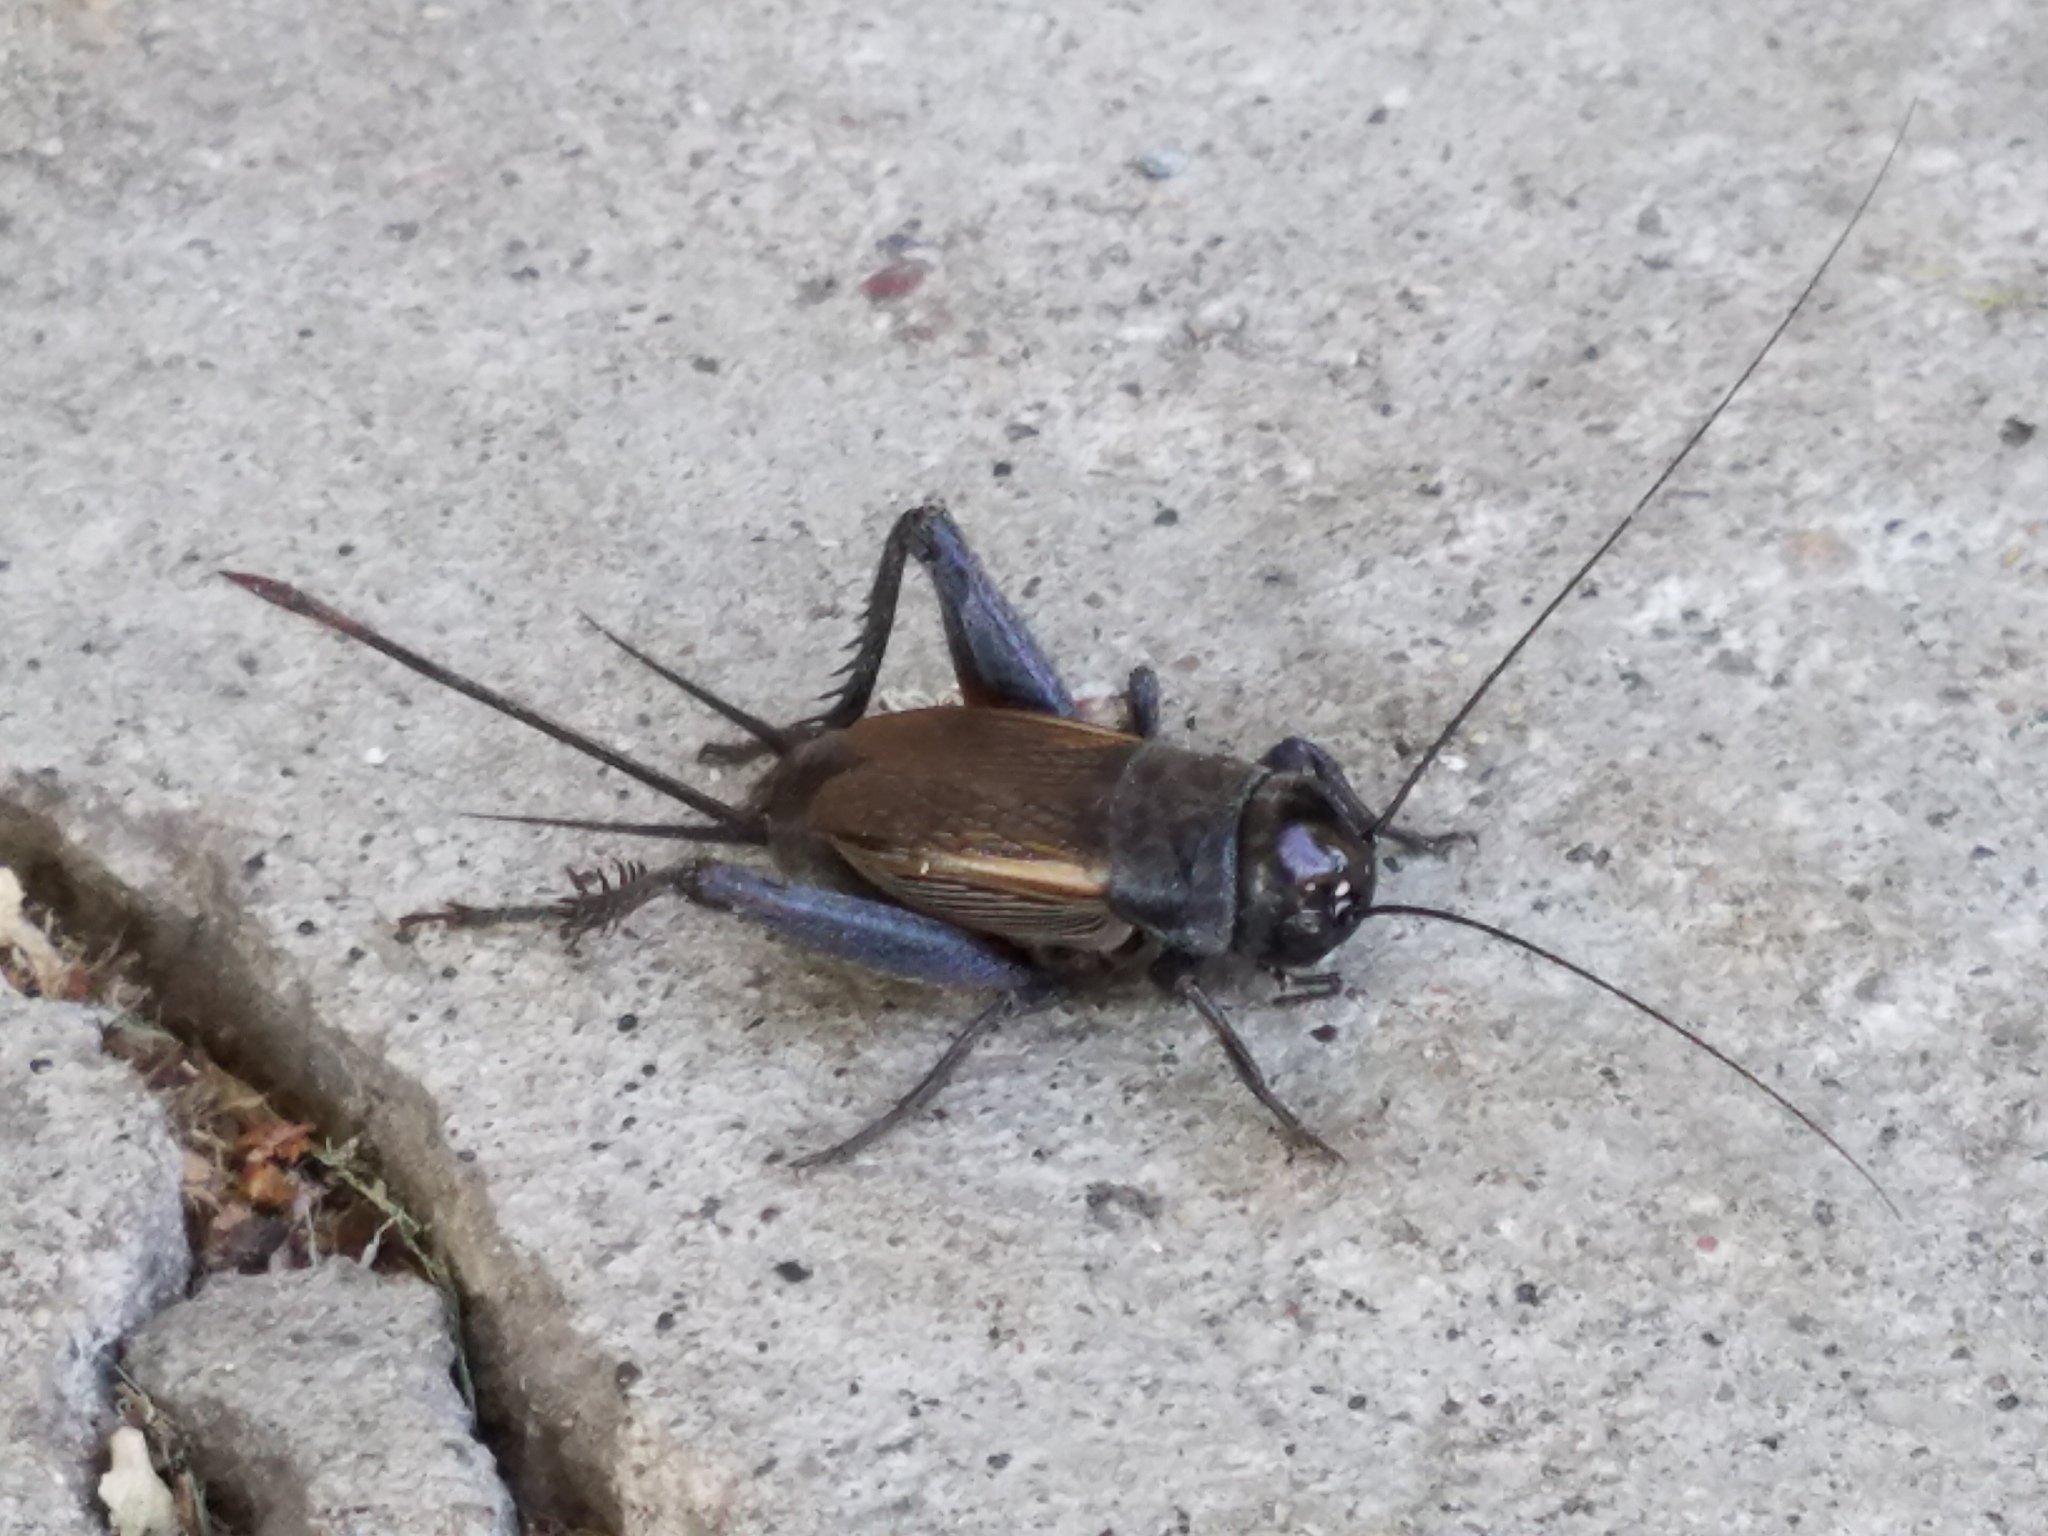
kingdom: Animalia
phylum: Arthropoda
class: Insecta
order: Orthoptera
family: Gryllidae
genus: Gryllus
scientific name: Gryllus pennsylvanicus
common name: Fall field cricket
